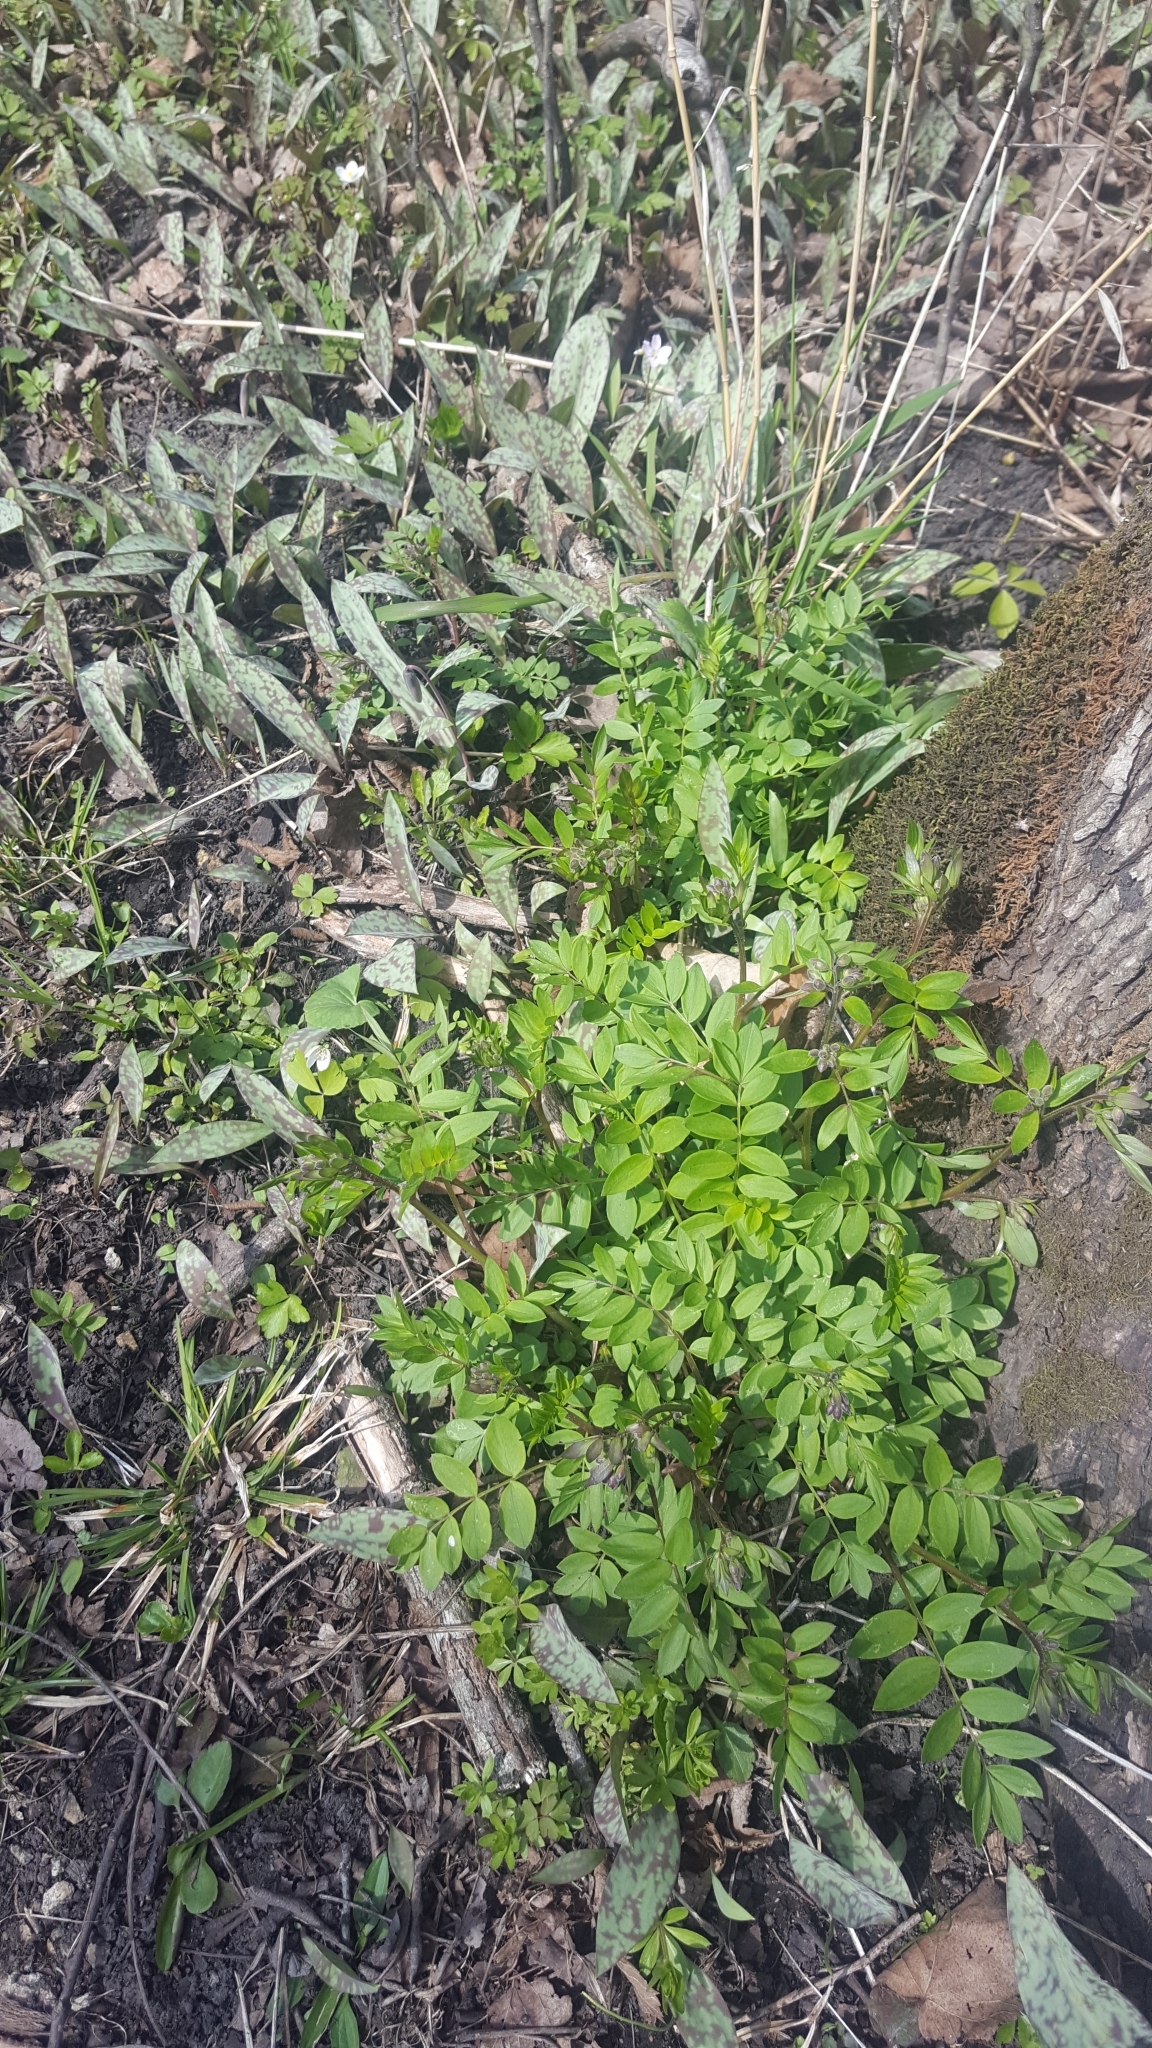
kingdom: Plantae
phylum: Tracheophyta
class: Magnoliopsida
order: Ericales
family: Polemoniaceae
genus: Polemonium
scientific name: Polemonium reptans
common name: Creeping jacob's-ladder
